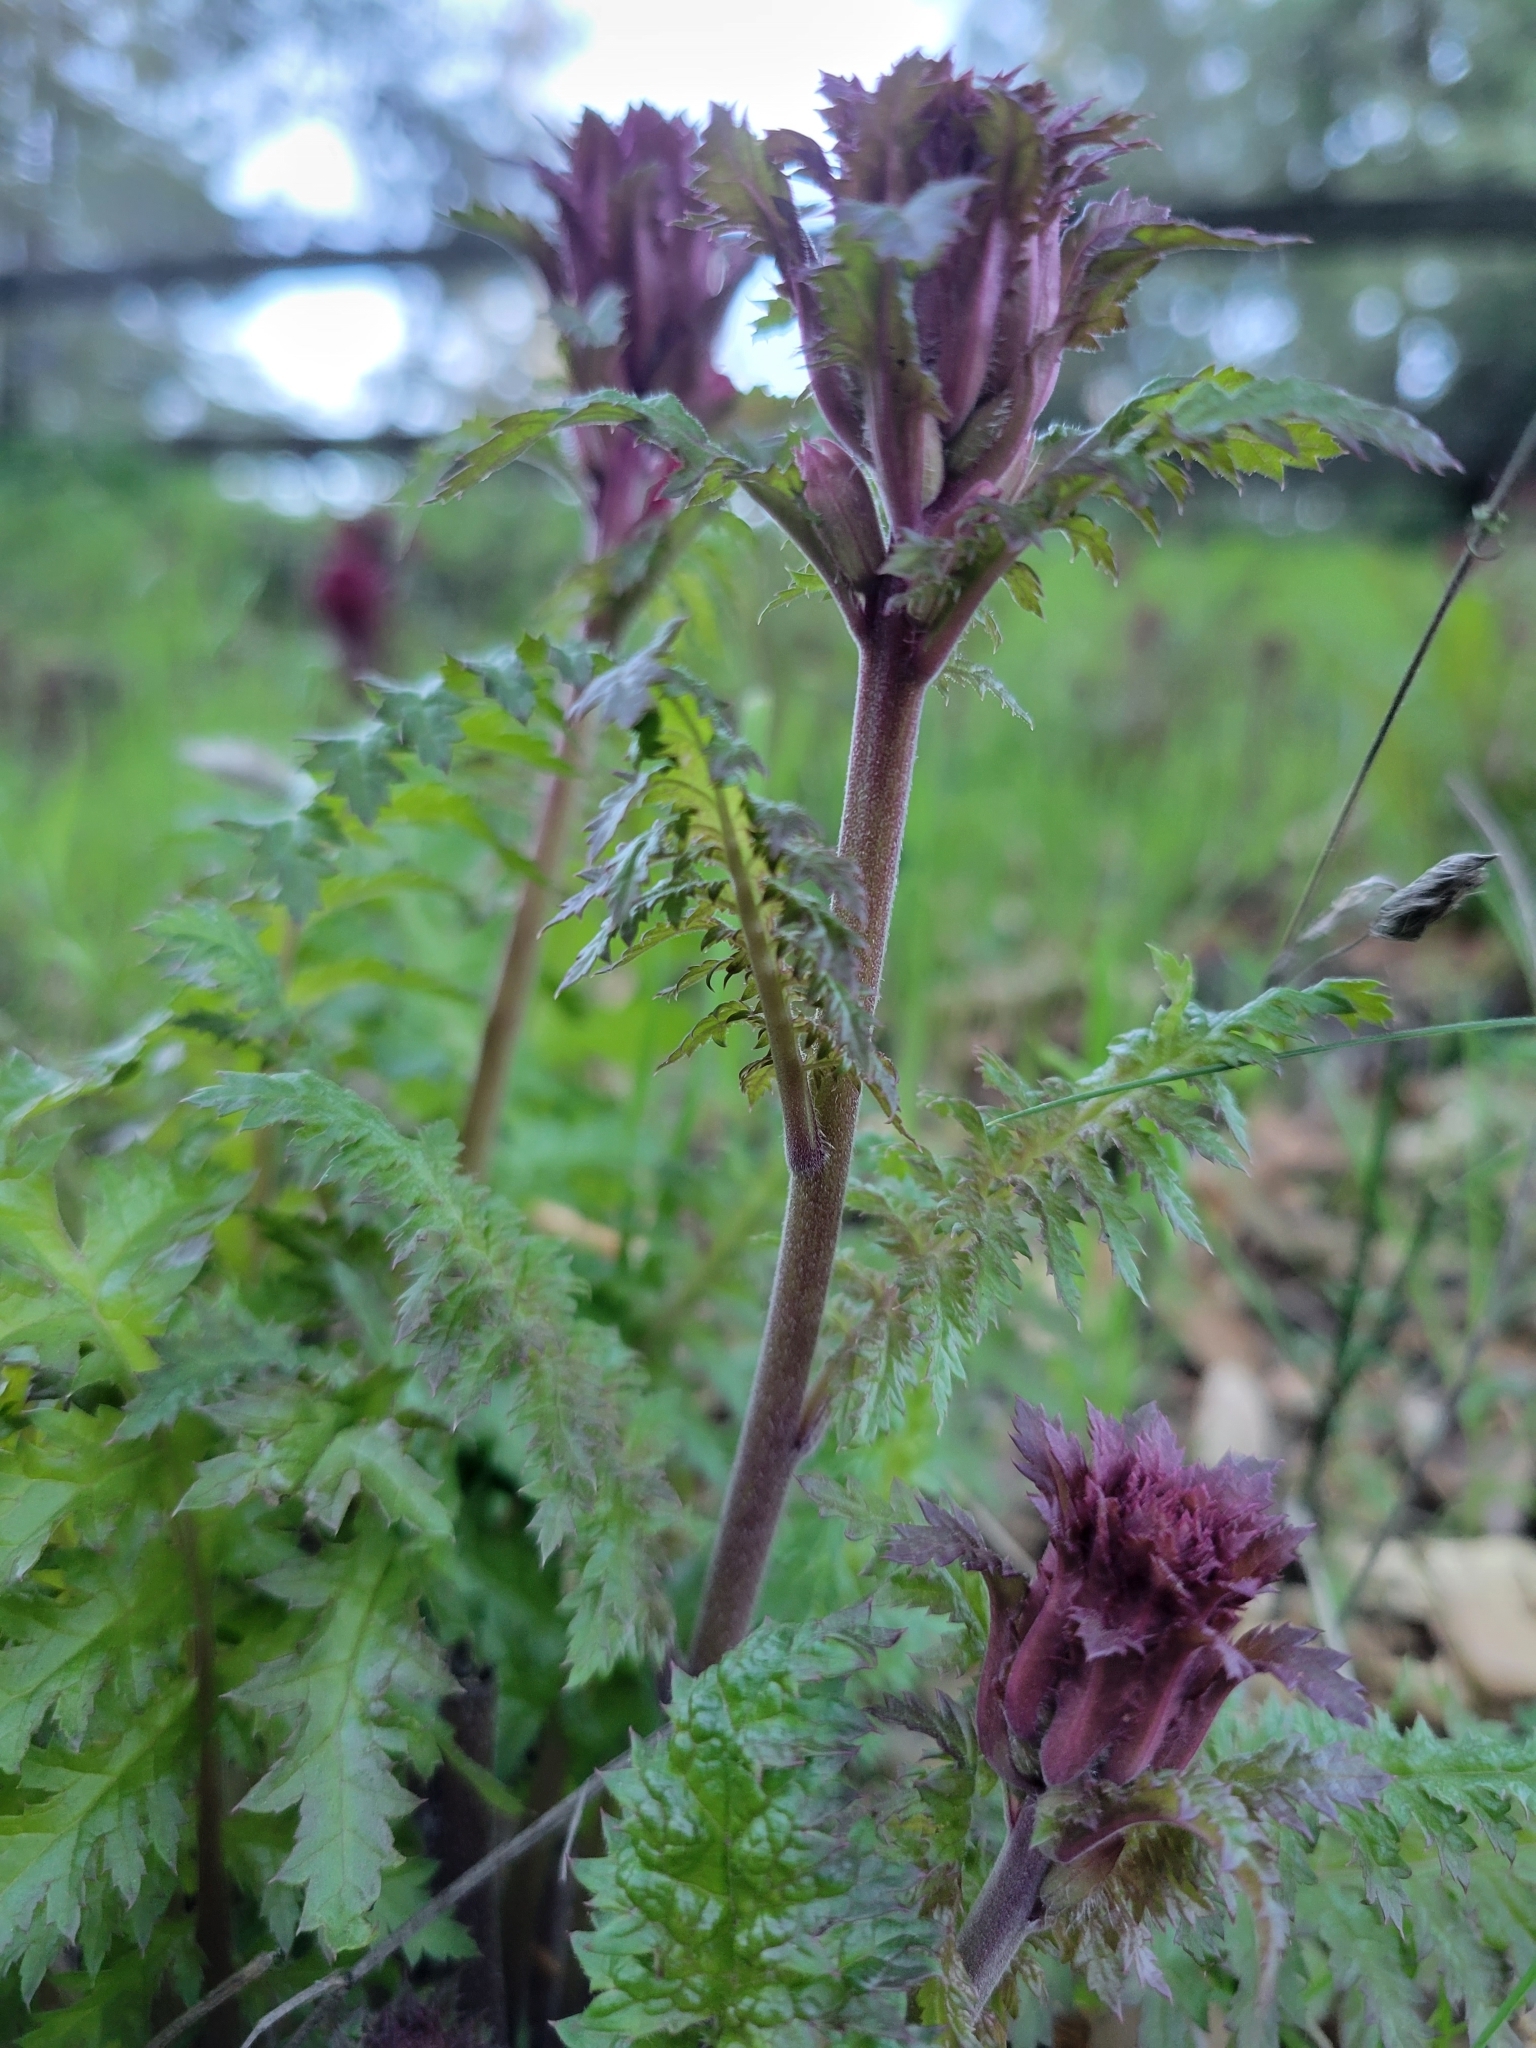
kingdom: Plantae
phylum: Tracheophyta
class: Magnoliopsida
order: Lamiales
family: Orobanchaceae
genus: Pedicularis
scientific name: Pedicularis densiflora
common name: Indian warrior
